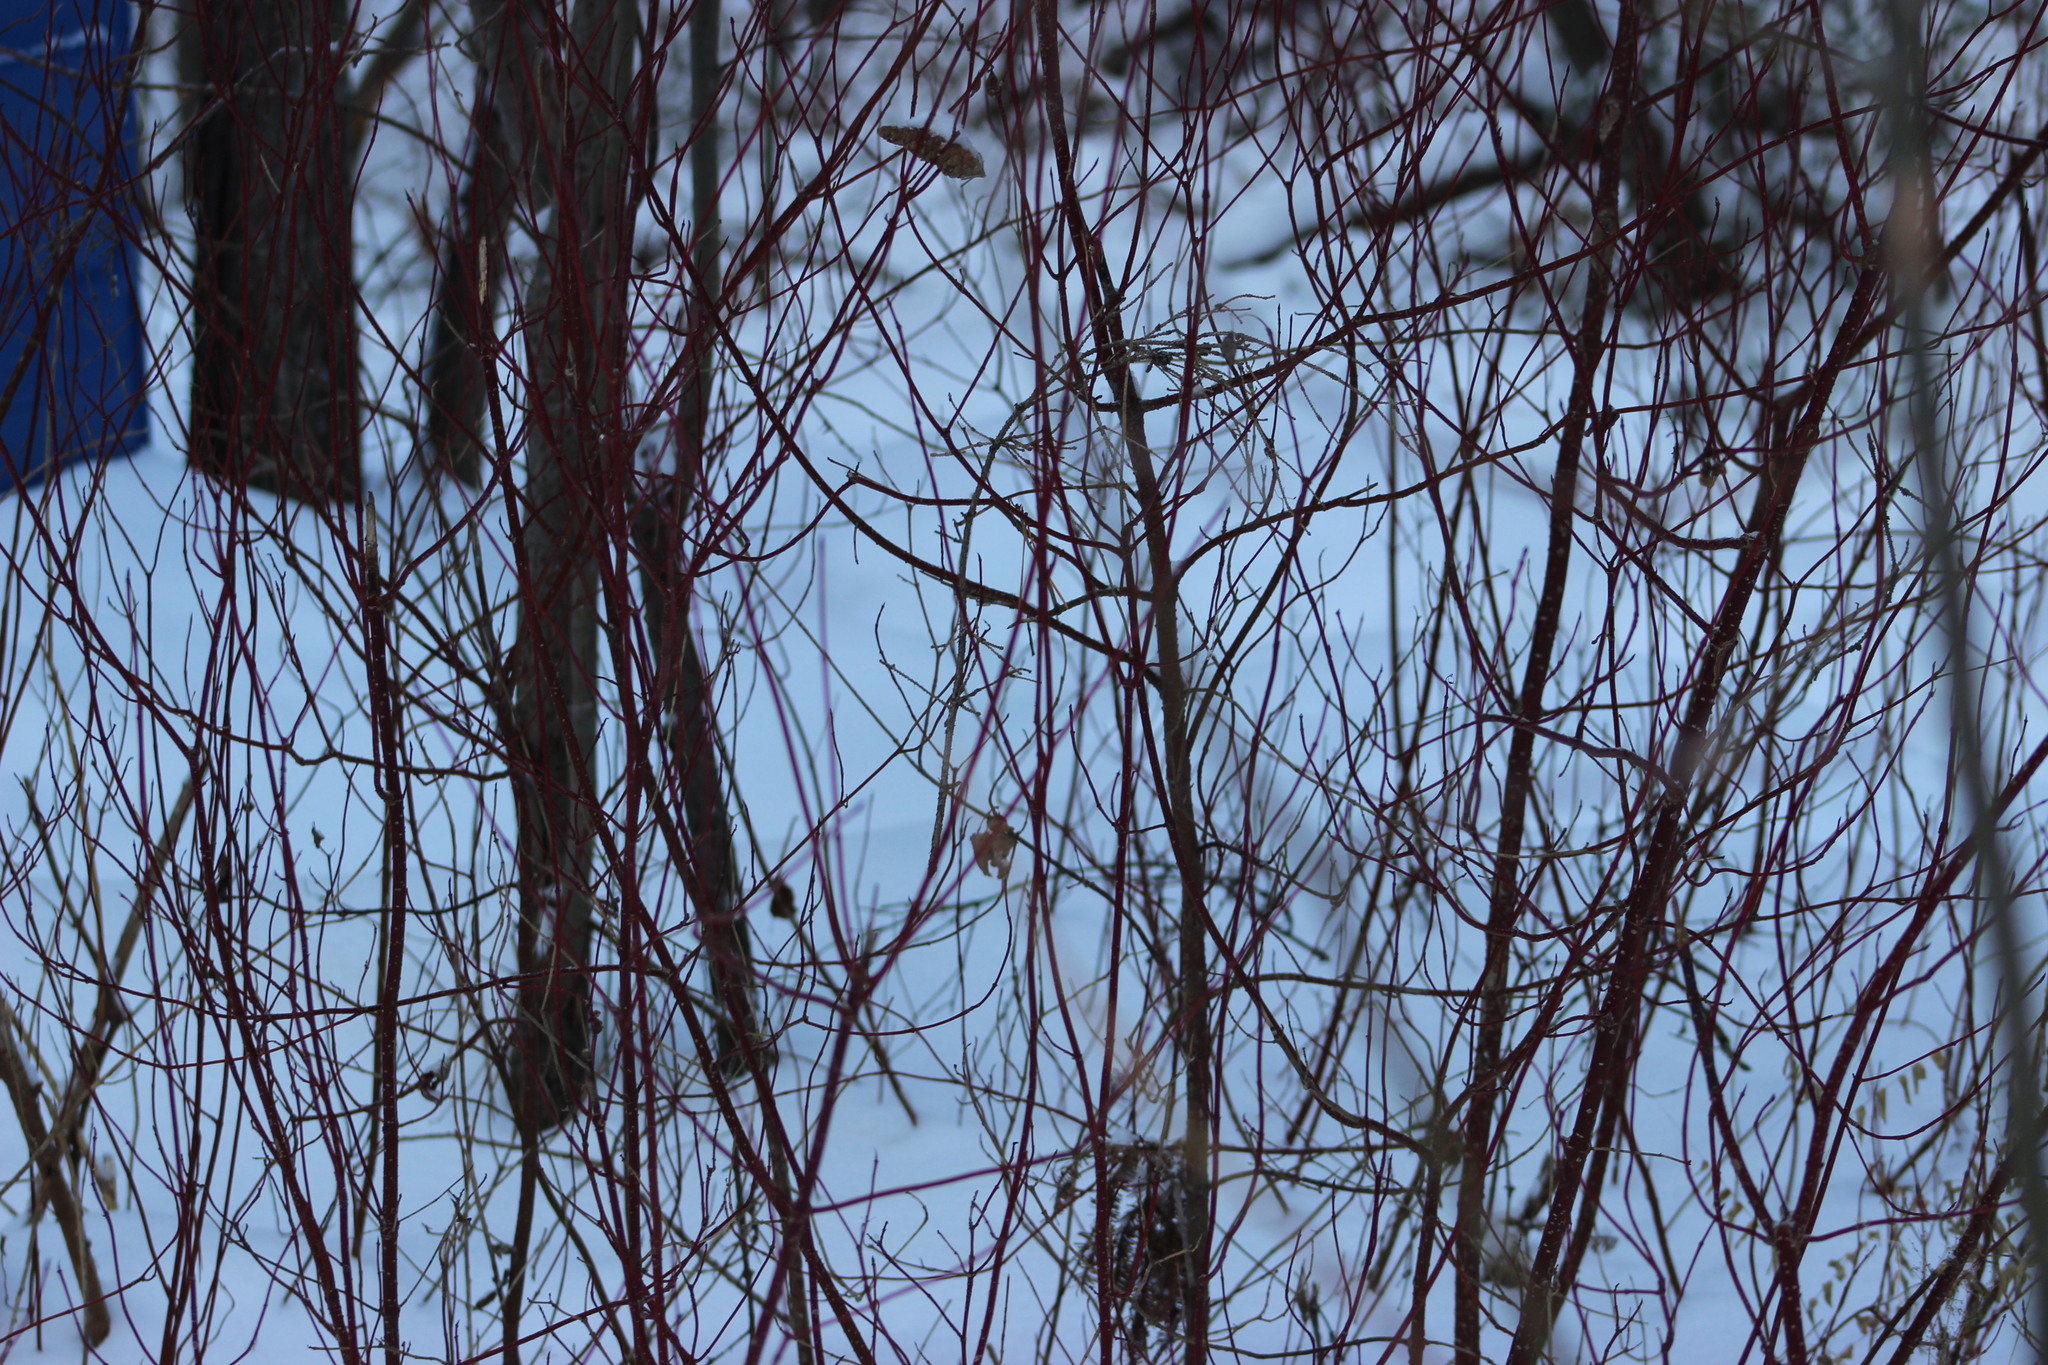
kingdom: Plantae
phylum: Tracheophyta
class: Magnoliopsida
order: Cornales
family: Cornaceae
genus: Cornus
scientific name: Cornus alba
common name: White dogwood
